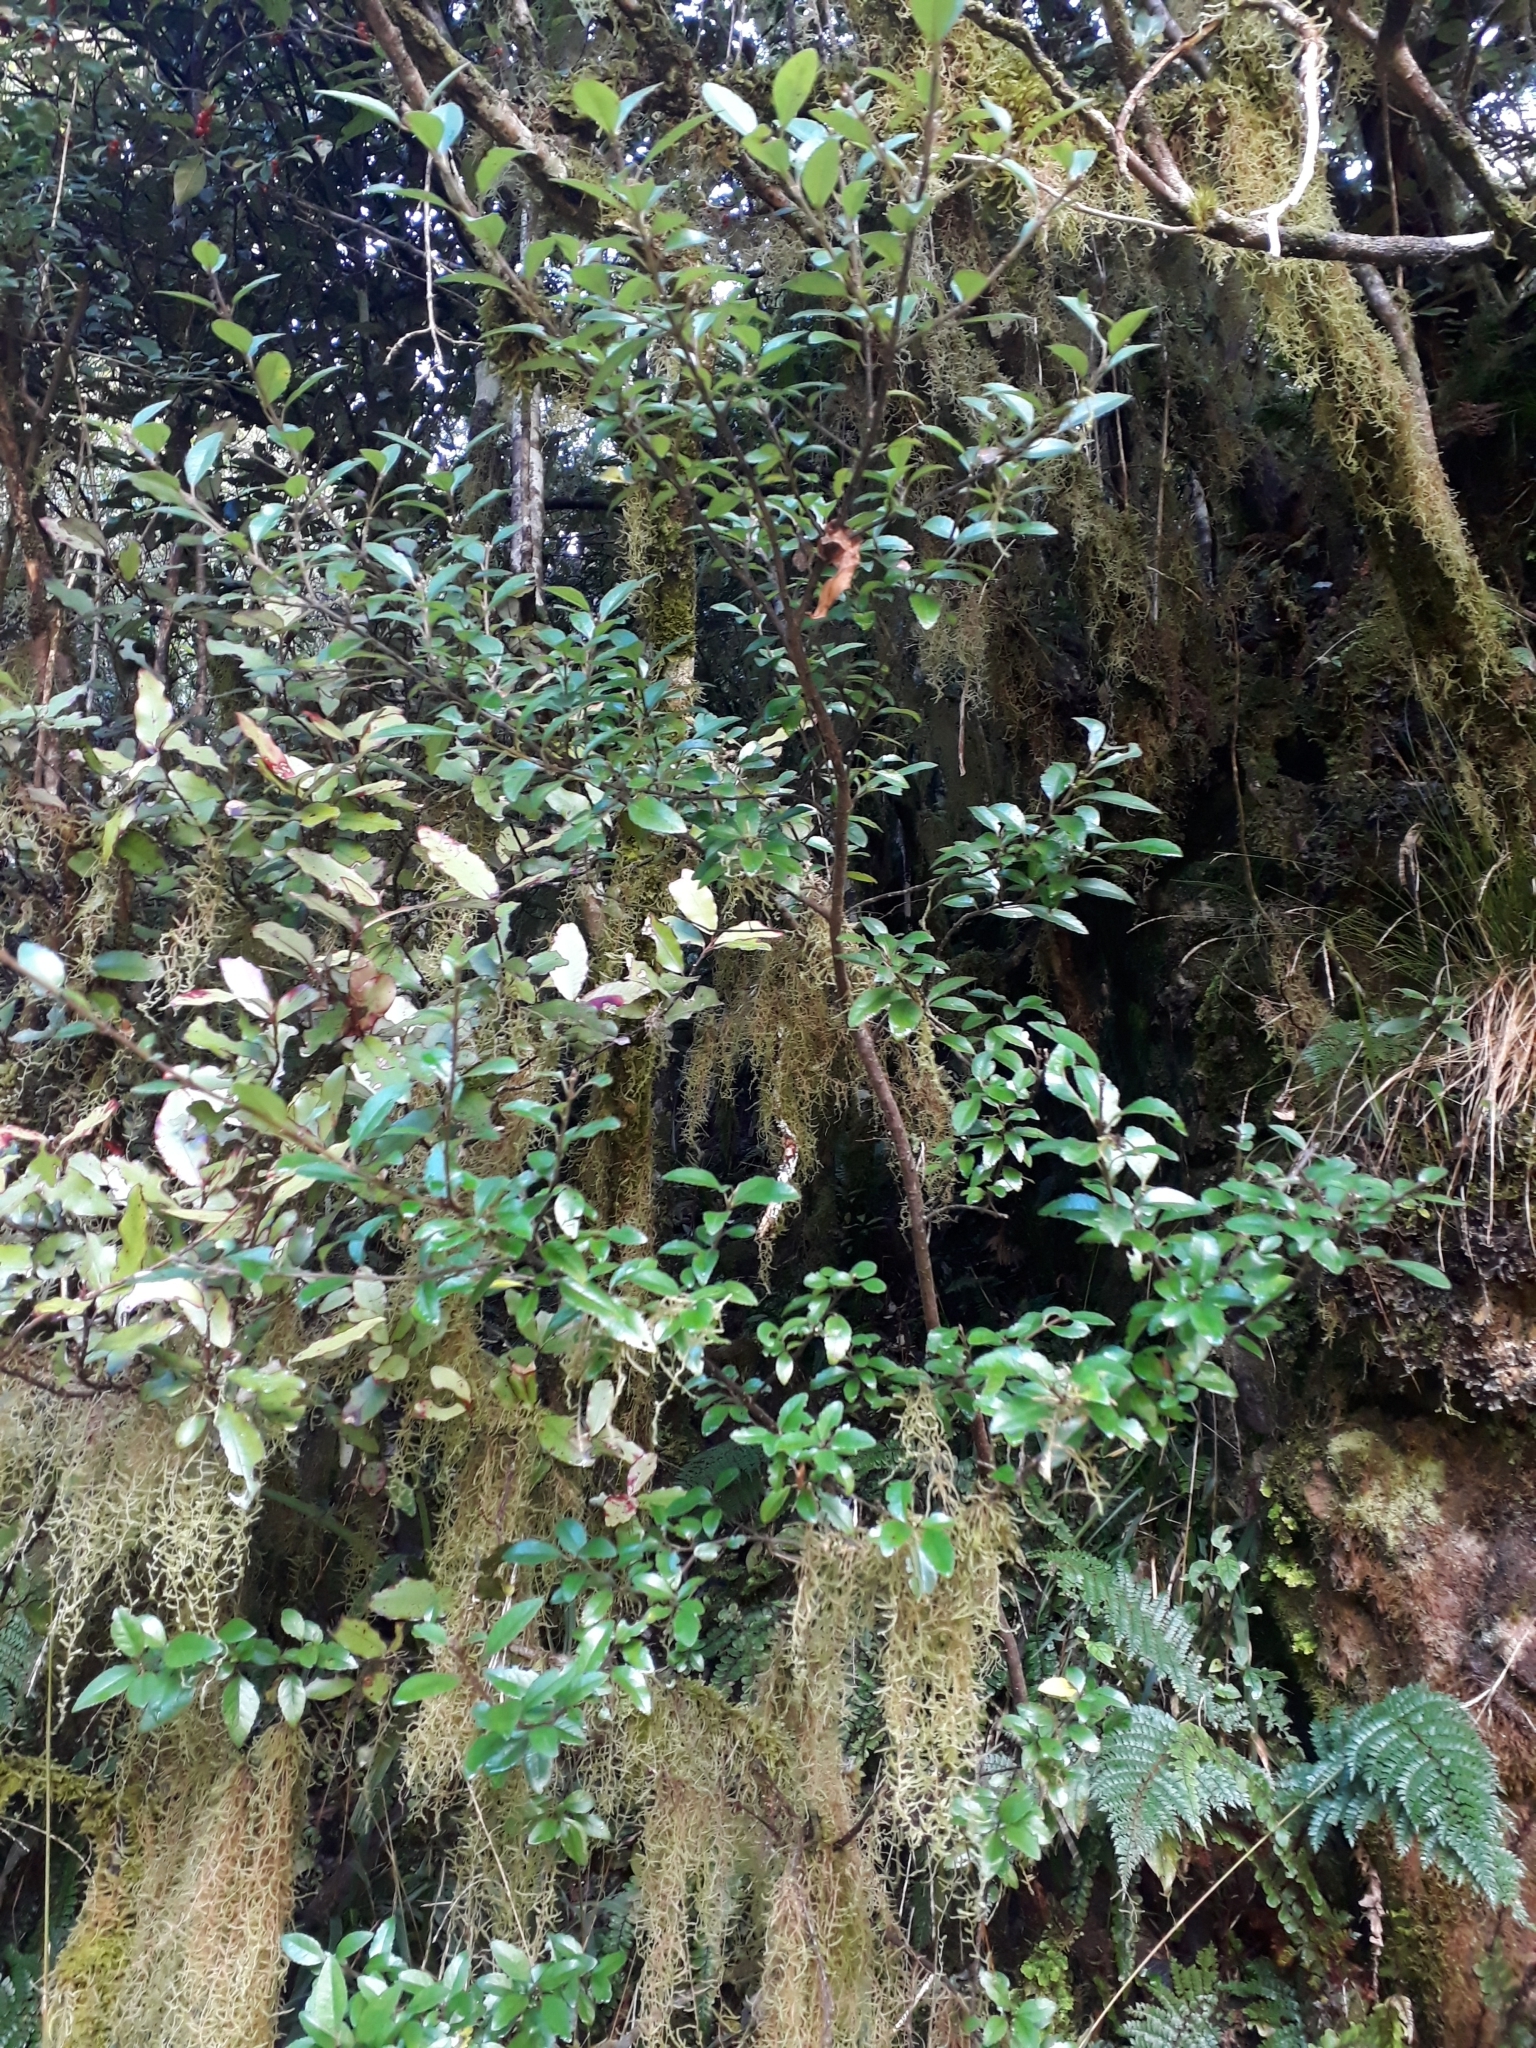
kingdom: Plantae
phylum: Tracheophyta
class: Magnoliopsida
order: Oxalidales
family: Elaeocarpaceae
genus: Aristotelia
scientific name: Aristotelia fruticosa
